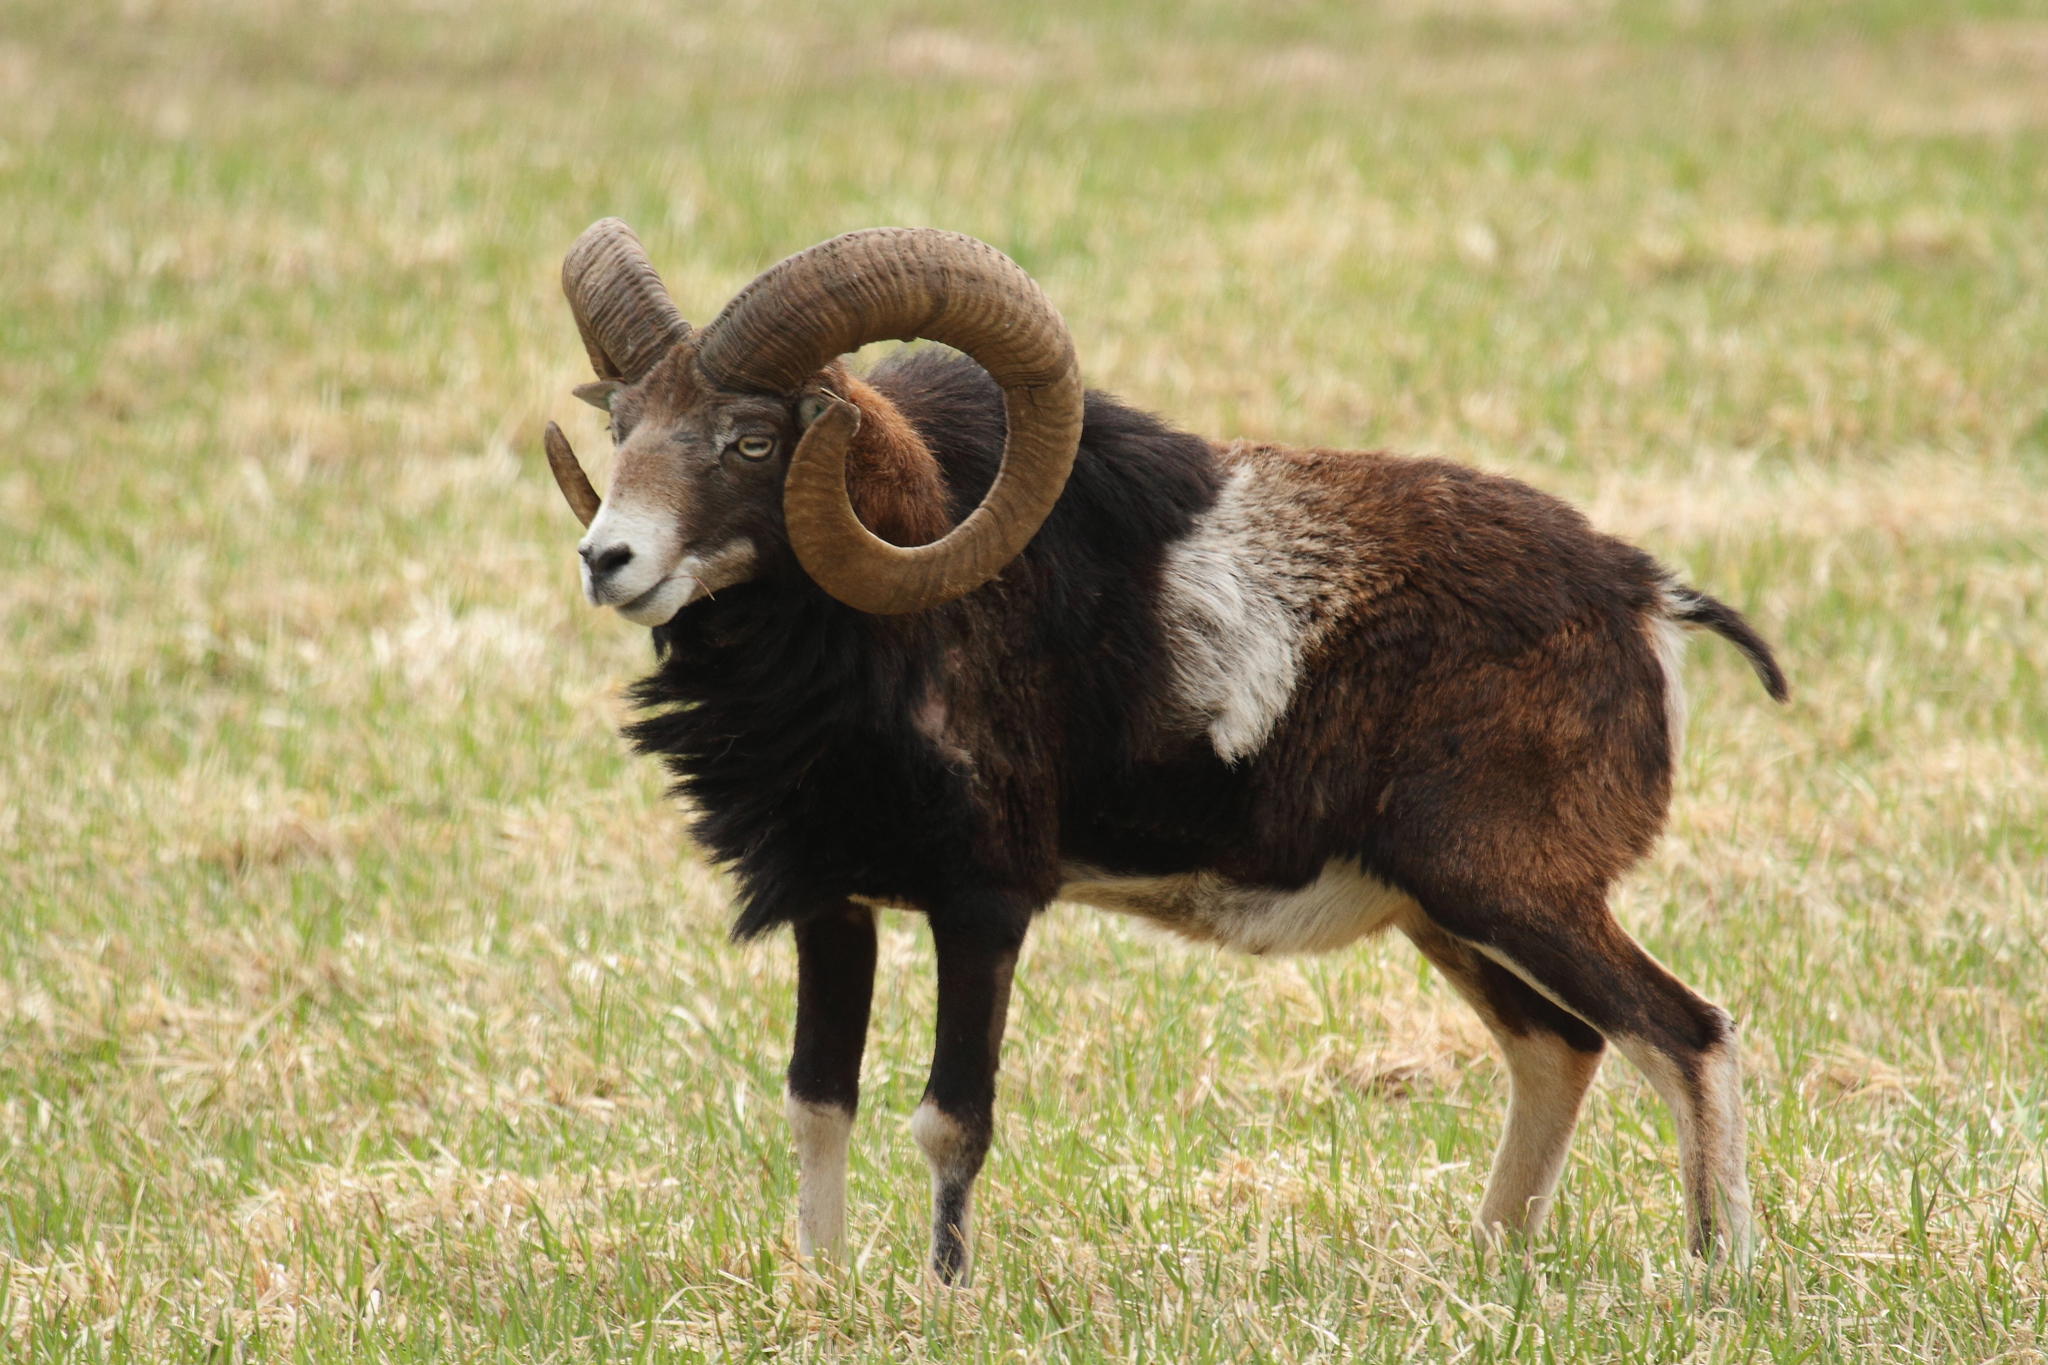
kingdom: Animalia
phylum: Chordata
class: Mammalia
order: Artiodactyla
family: Bovidae
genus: Ovis
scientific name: Ovis aries
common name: Domestic sheep
